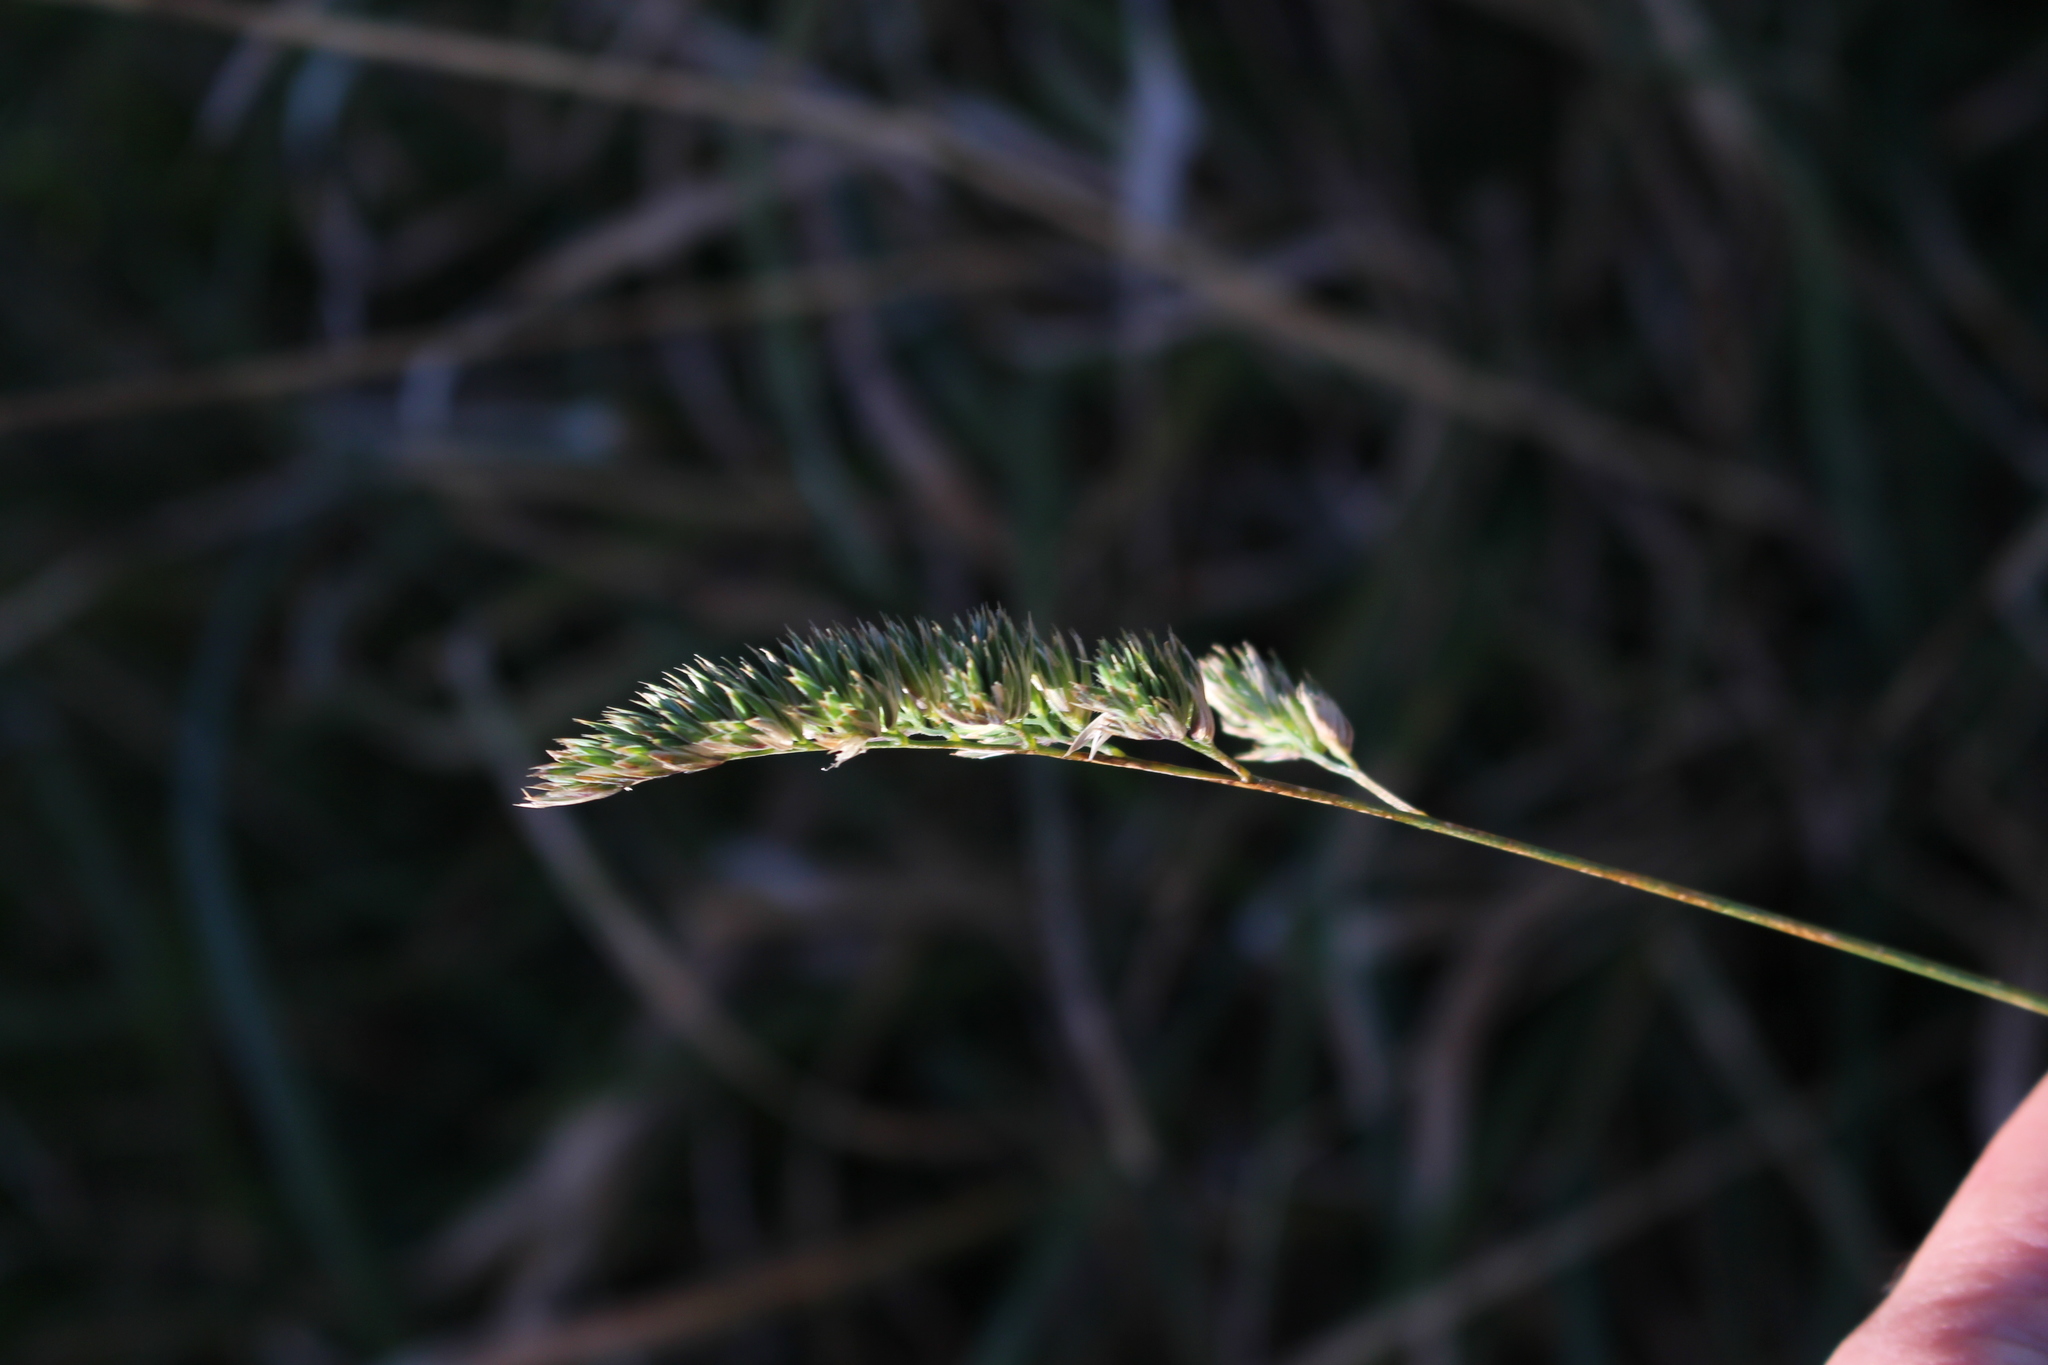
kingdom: Plantae
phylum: Tracheophyta
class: Liliopsida
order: Poales
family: Poaceae
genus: Dactylis
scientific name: Dactylis glomerata
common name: Orchardgrass
